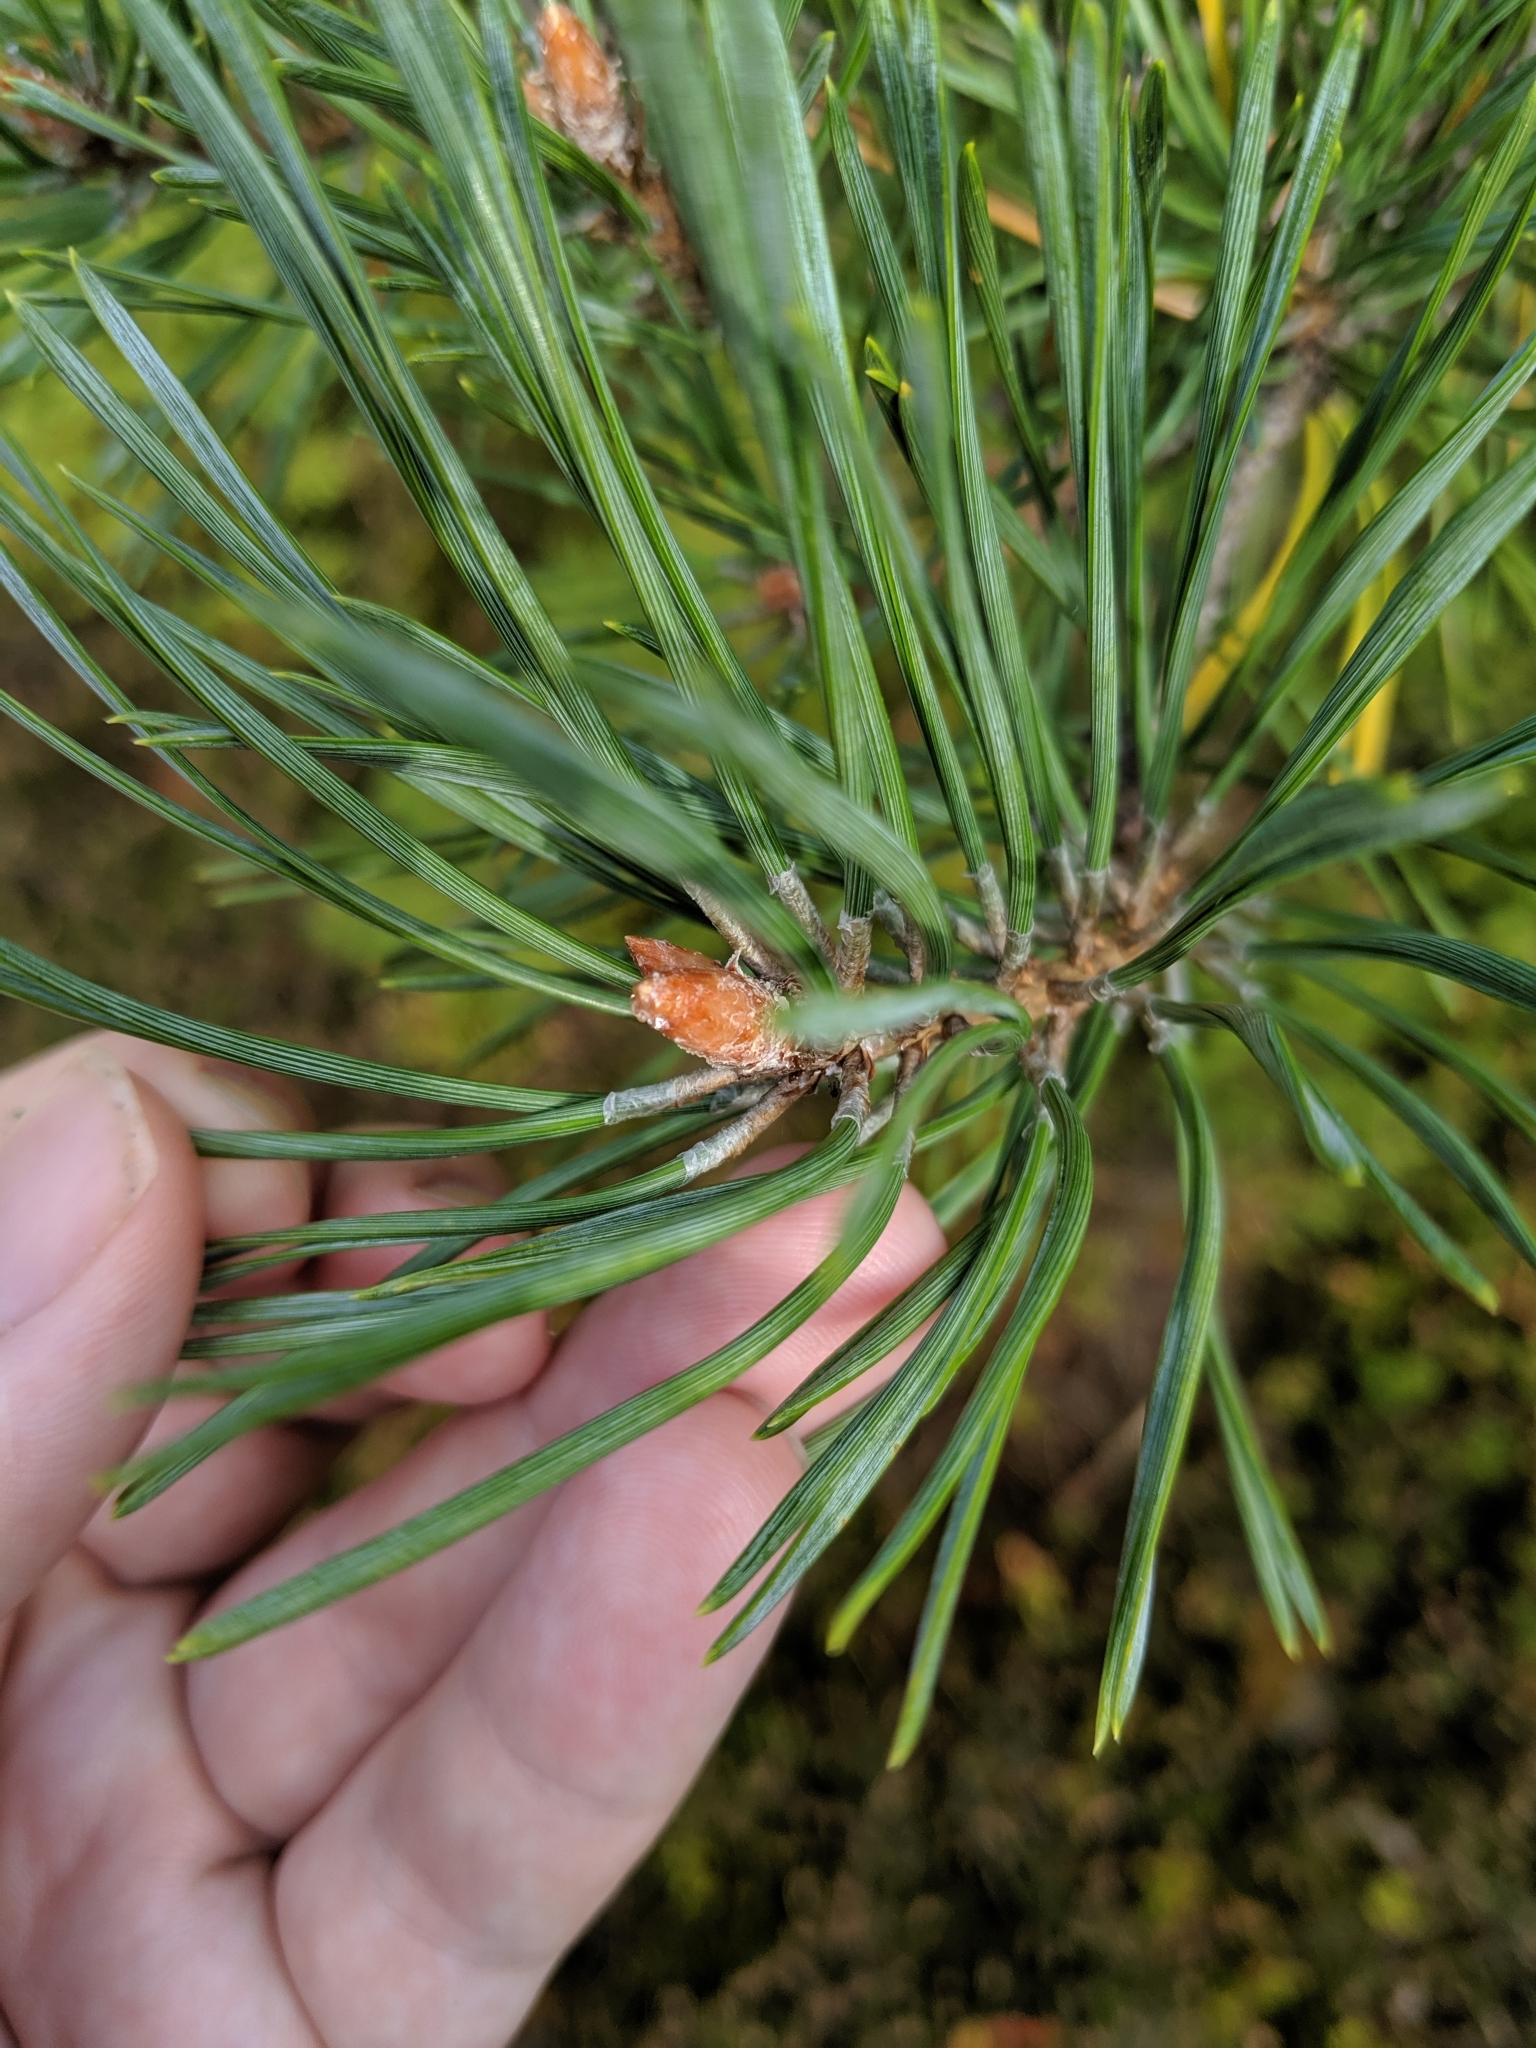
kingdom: Plantae
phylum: Tracheophyta
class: Pinopsida
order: Pinales
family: Pinaceae
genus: Pinus
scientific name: Pinus sylvestris
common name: Scots pine
